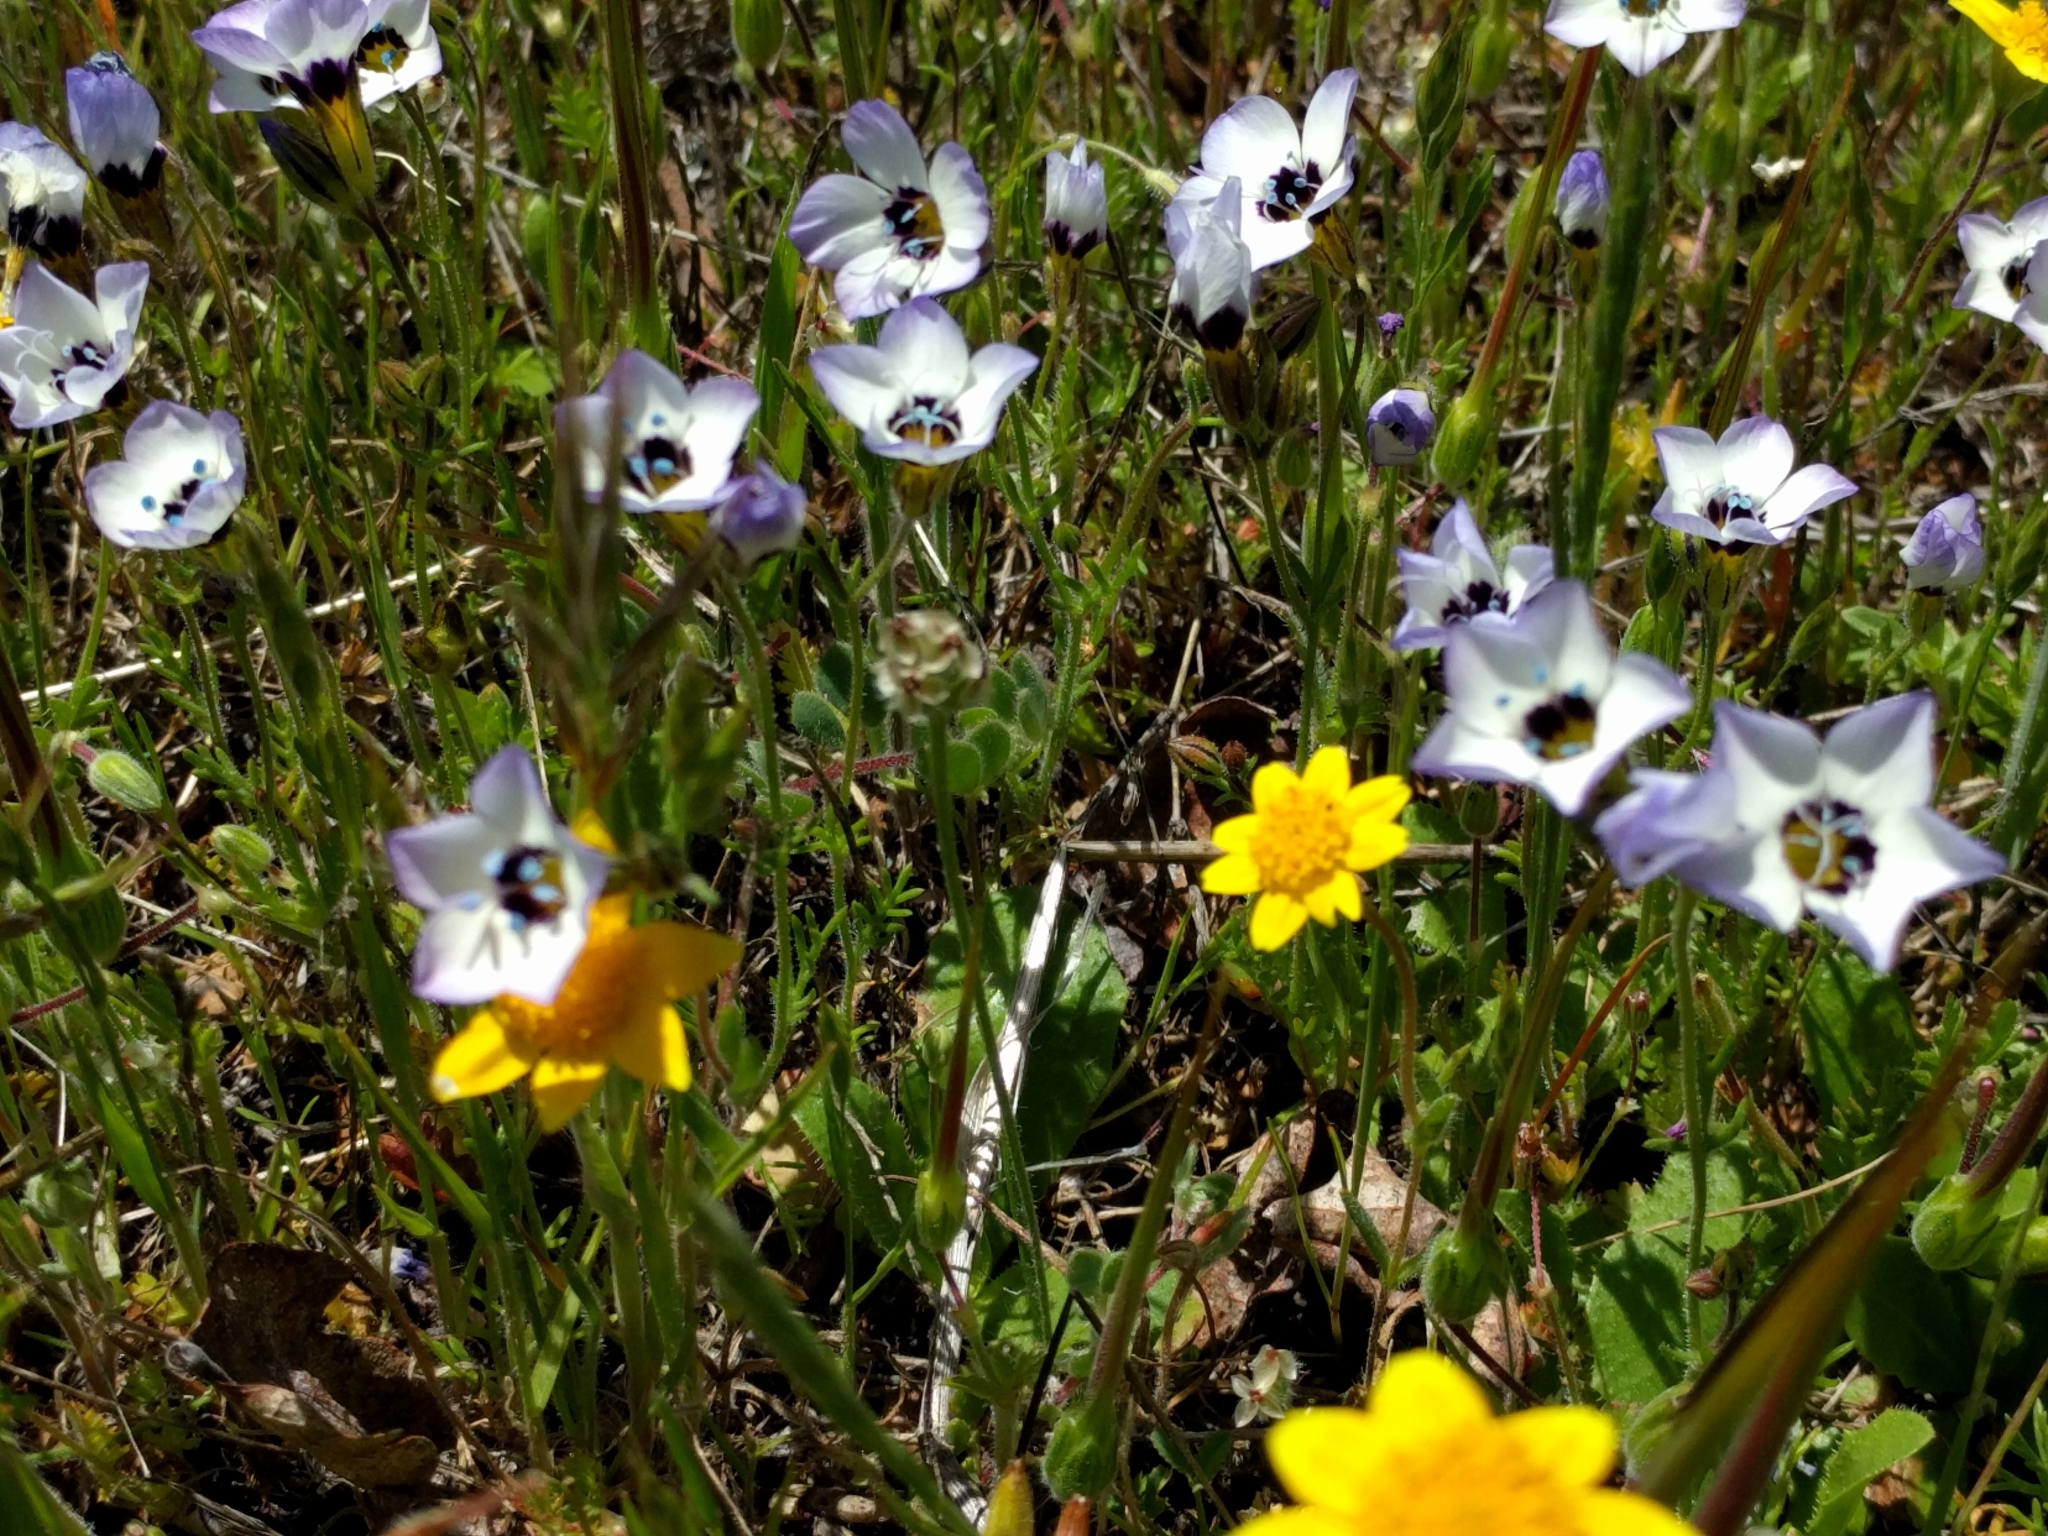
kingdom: Plantae
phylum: Tracheophyta
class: Magnoliopsida
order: Ericales
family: Polemoniaceae
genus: Gilia
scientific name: Gilia tricolor
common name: Bird's-eyes
